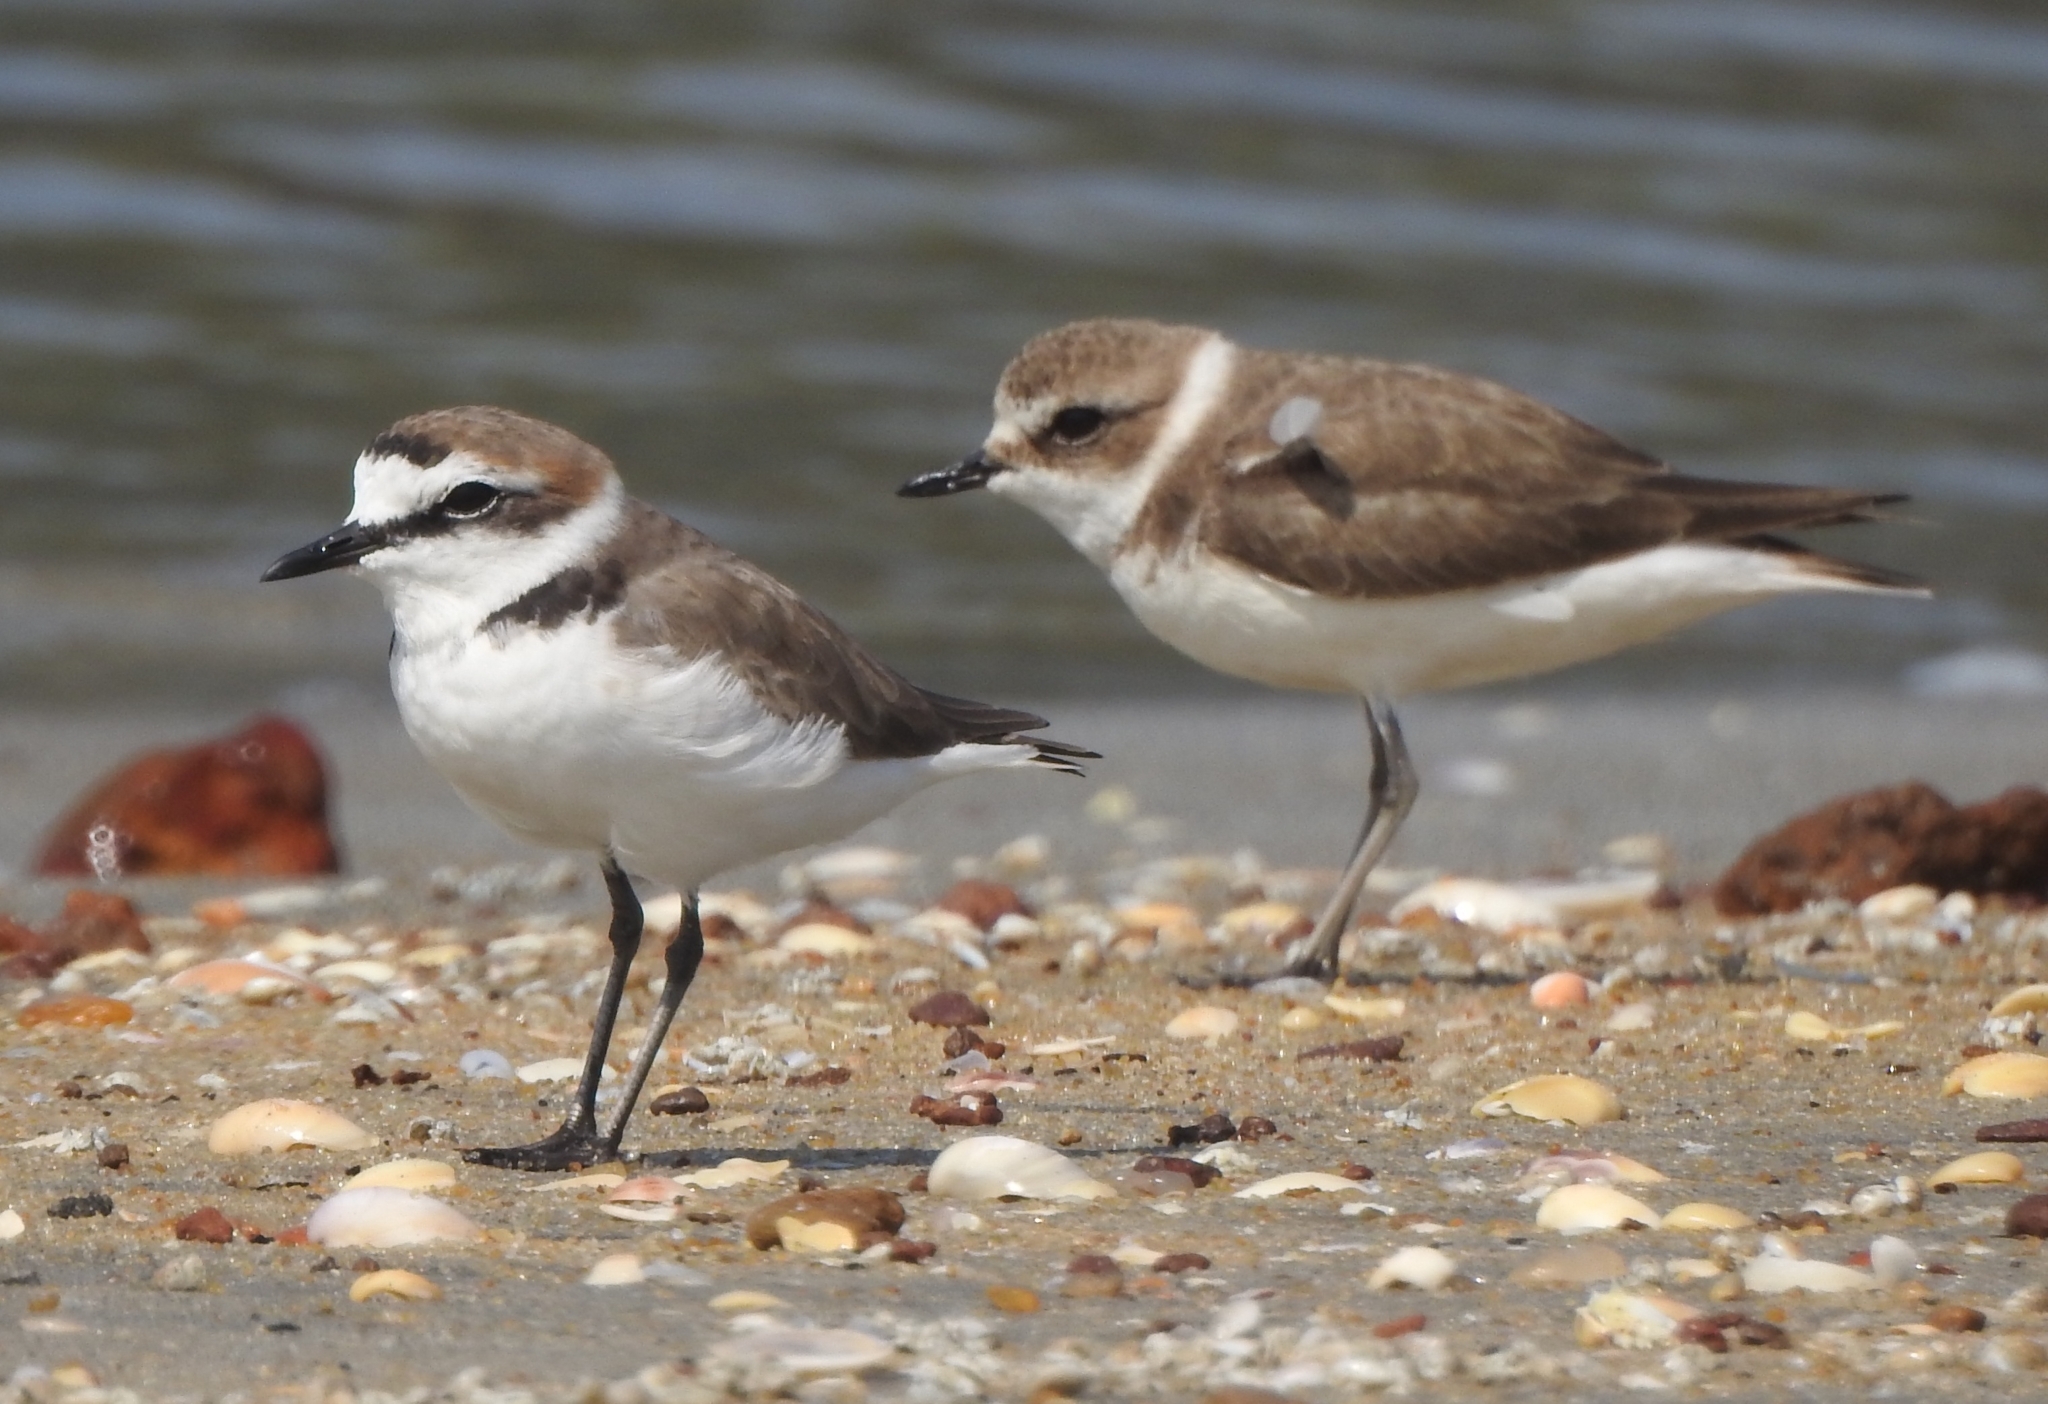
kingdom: Animalia
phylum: Chordata
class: Aves
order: Charadriiformes
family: Charadriidae
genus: Charadrius
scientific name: Charadrius alexandrinus
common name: Kentish plover
